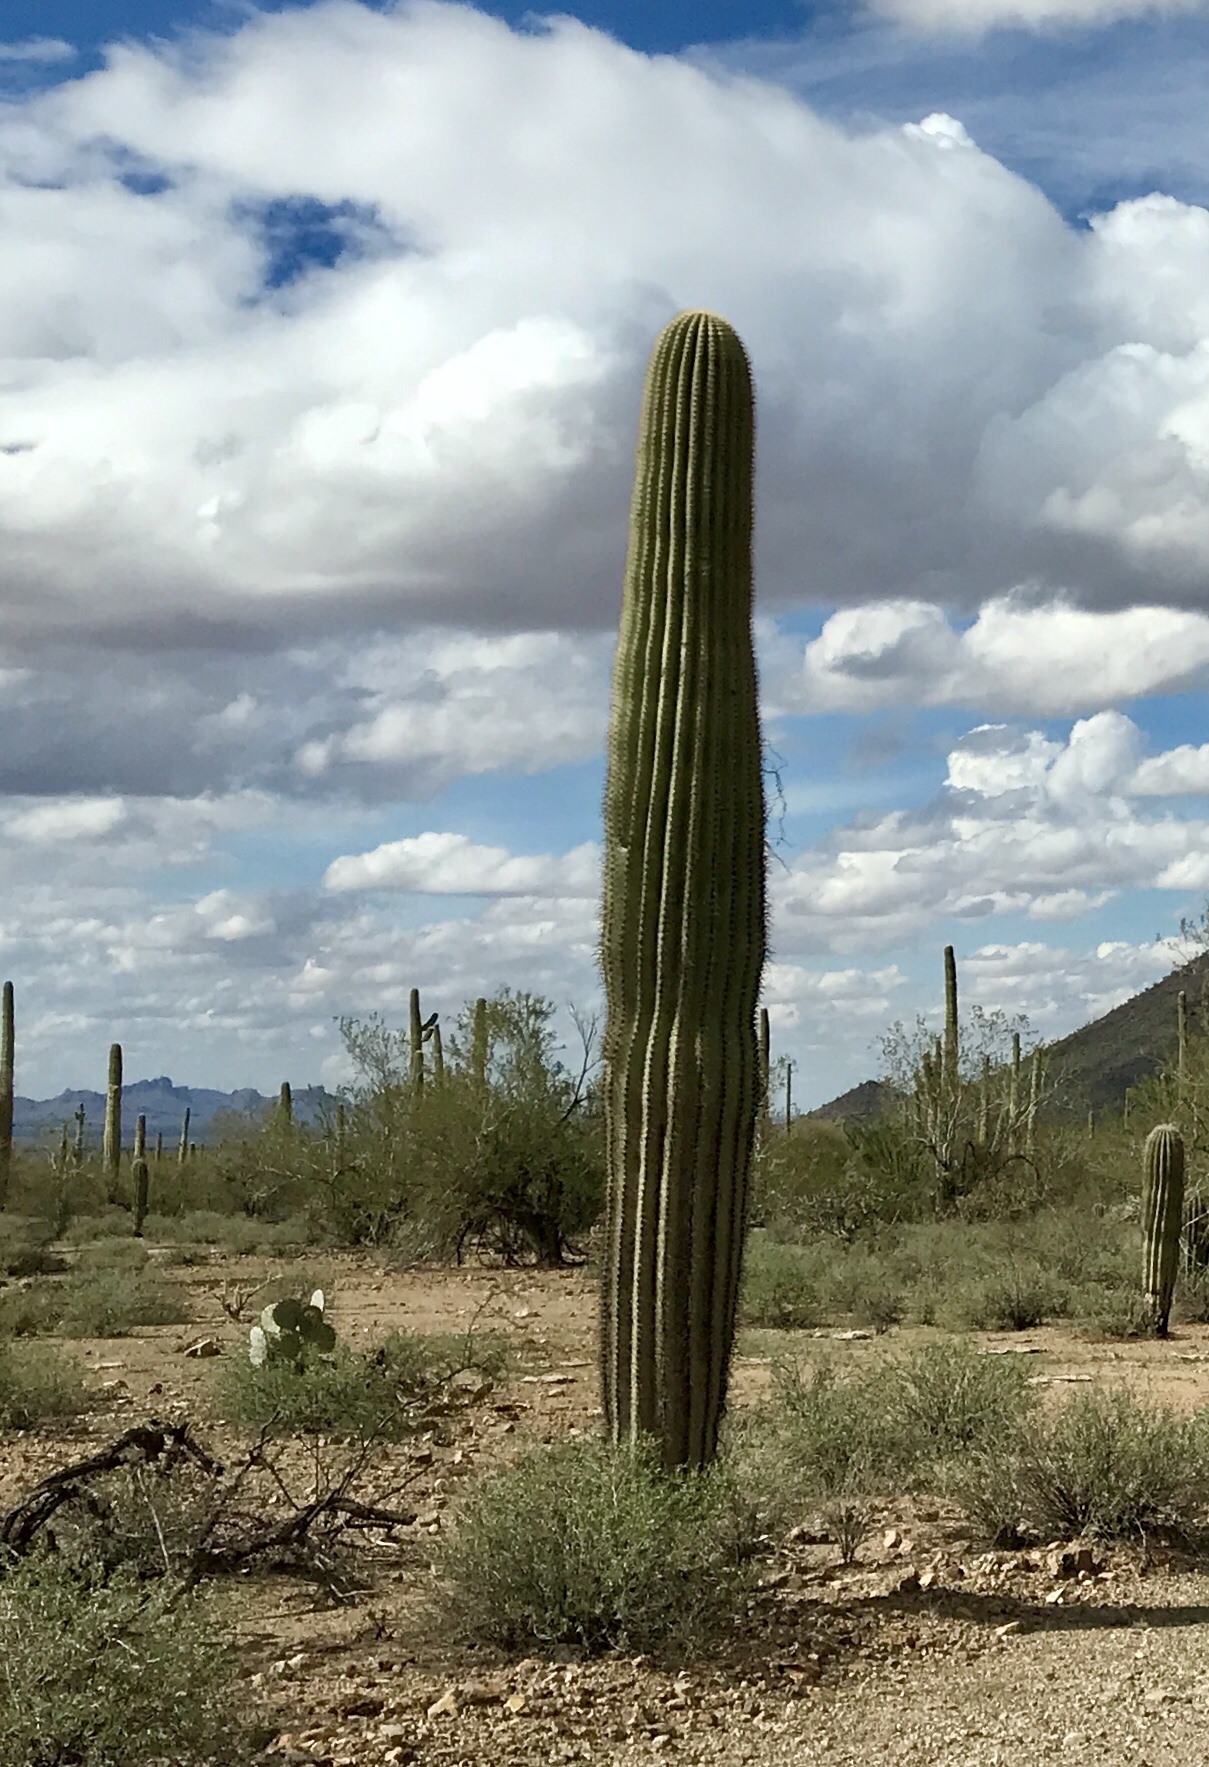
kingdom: Plantae
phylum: Tracheophyta
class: Magnoliopsida
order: Caryophyllales
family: Cactaceae
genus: Carnegiea
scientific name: Carnegiea gigantea
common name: Saguaro
